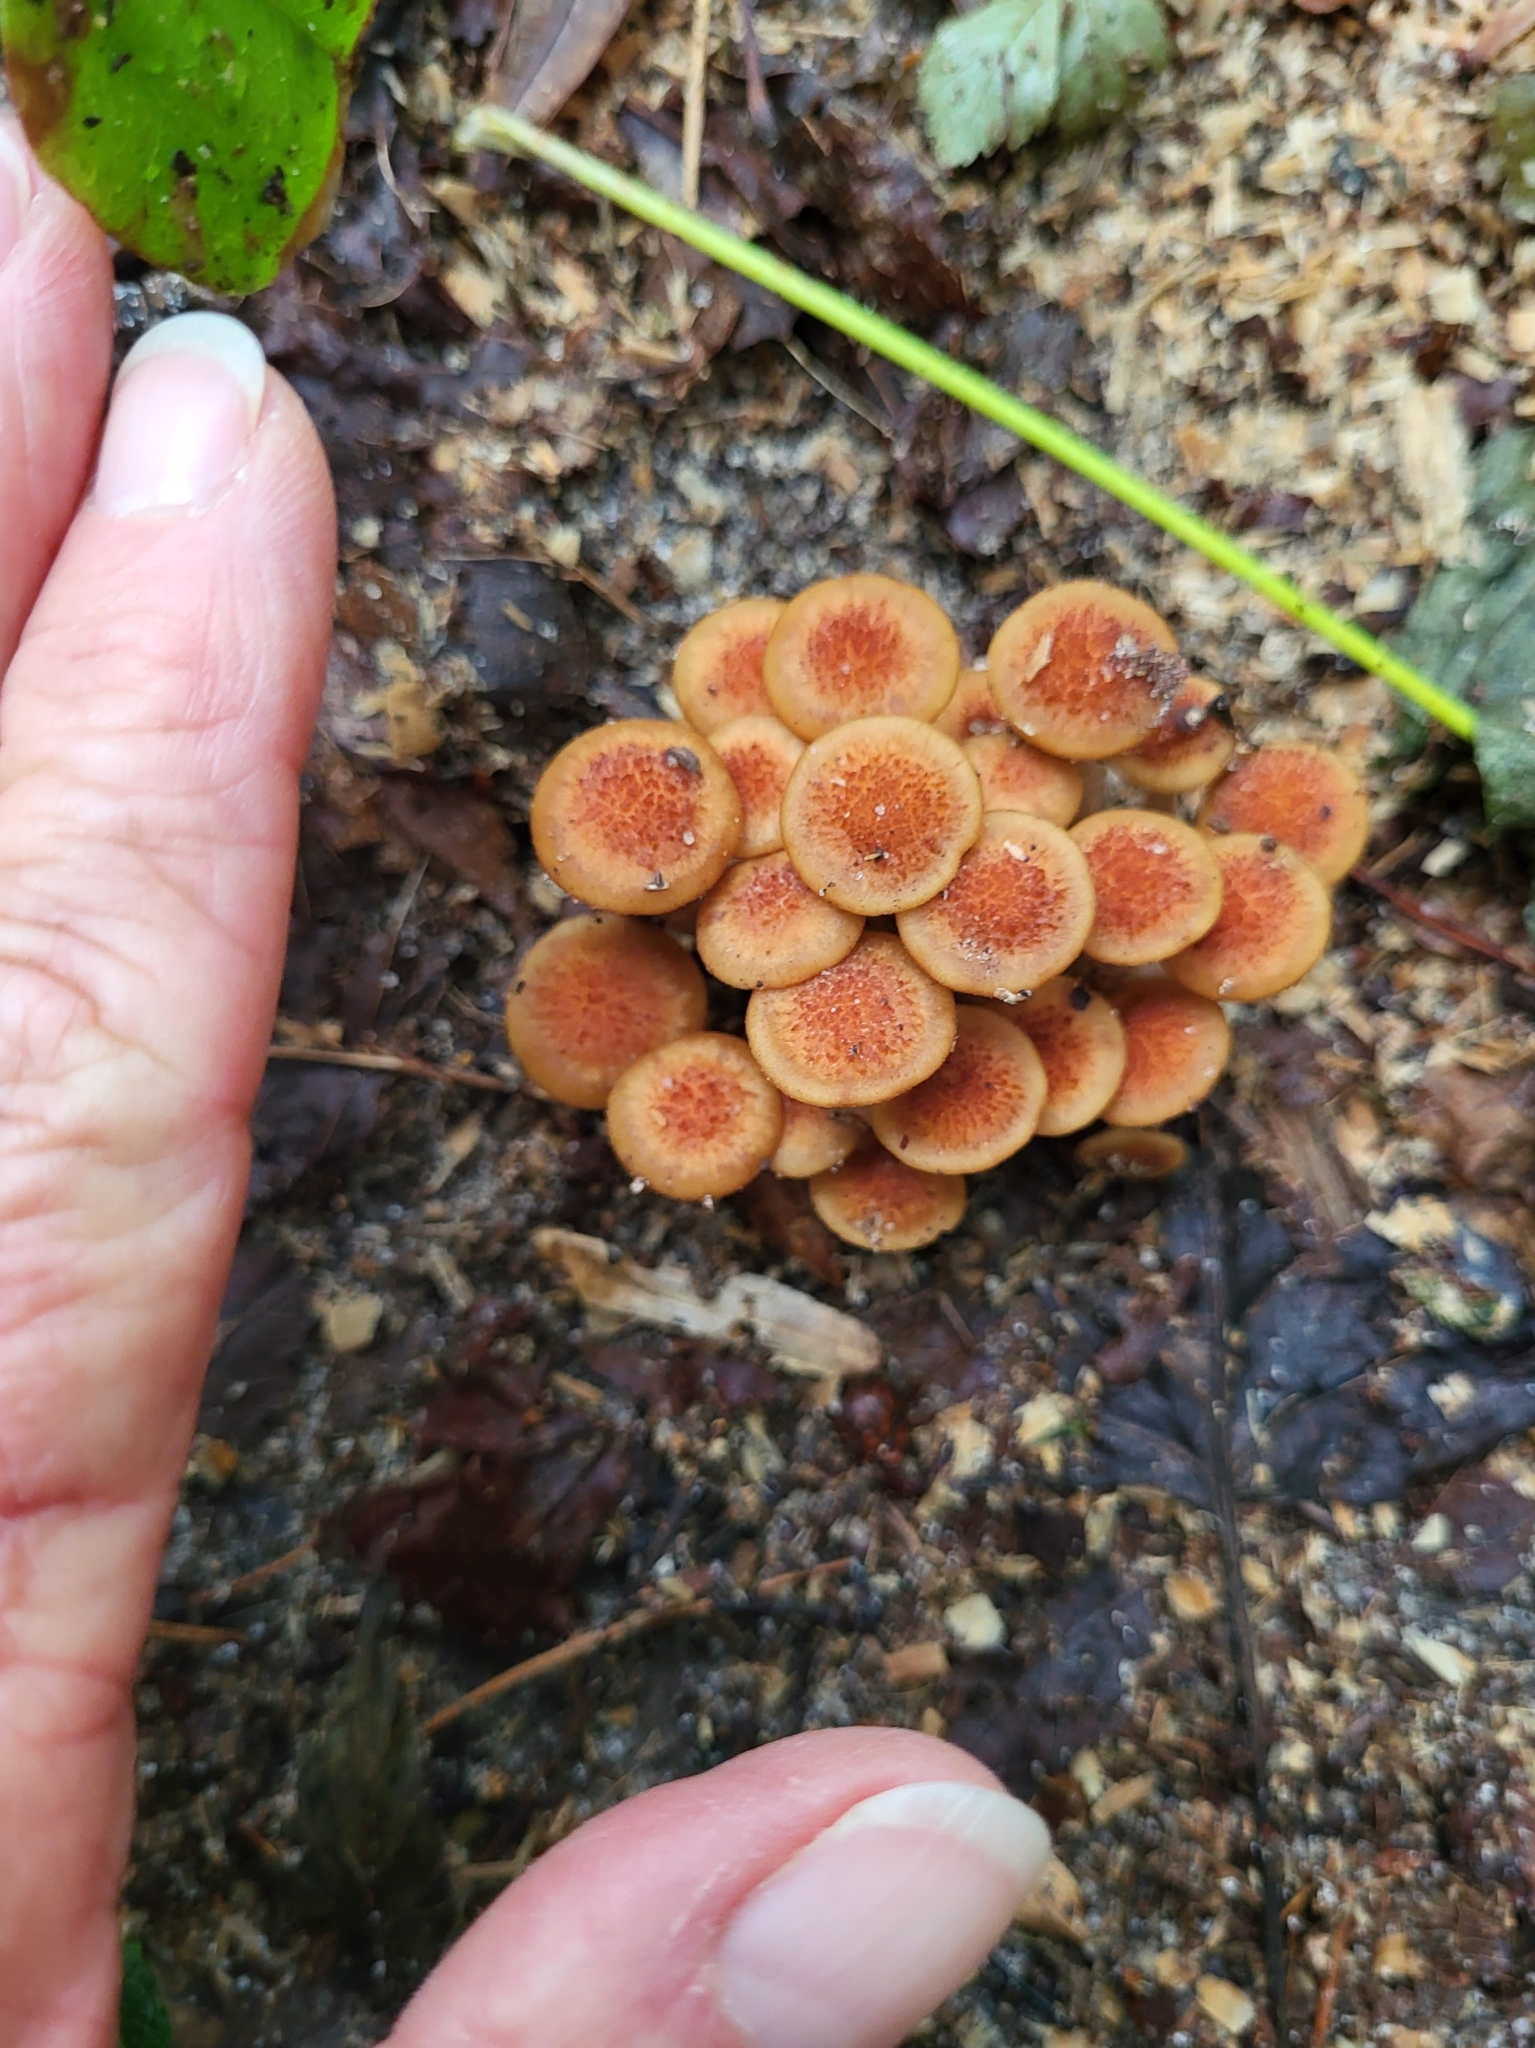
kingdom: Fungi
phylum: Basidiomycota
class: Agaricomycetes
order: Agaricales
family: Physalacriaceae
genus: Desarmillaria
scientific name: Desarmillaria caespitosa
